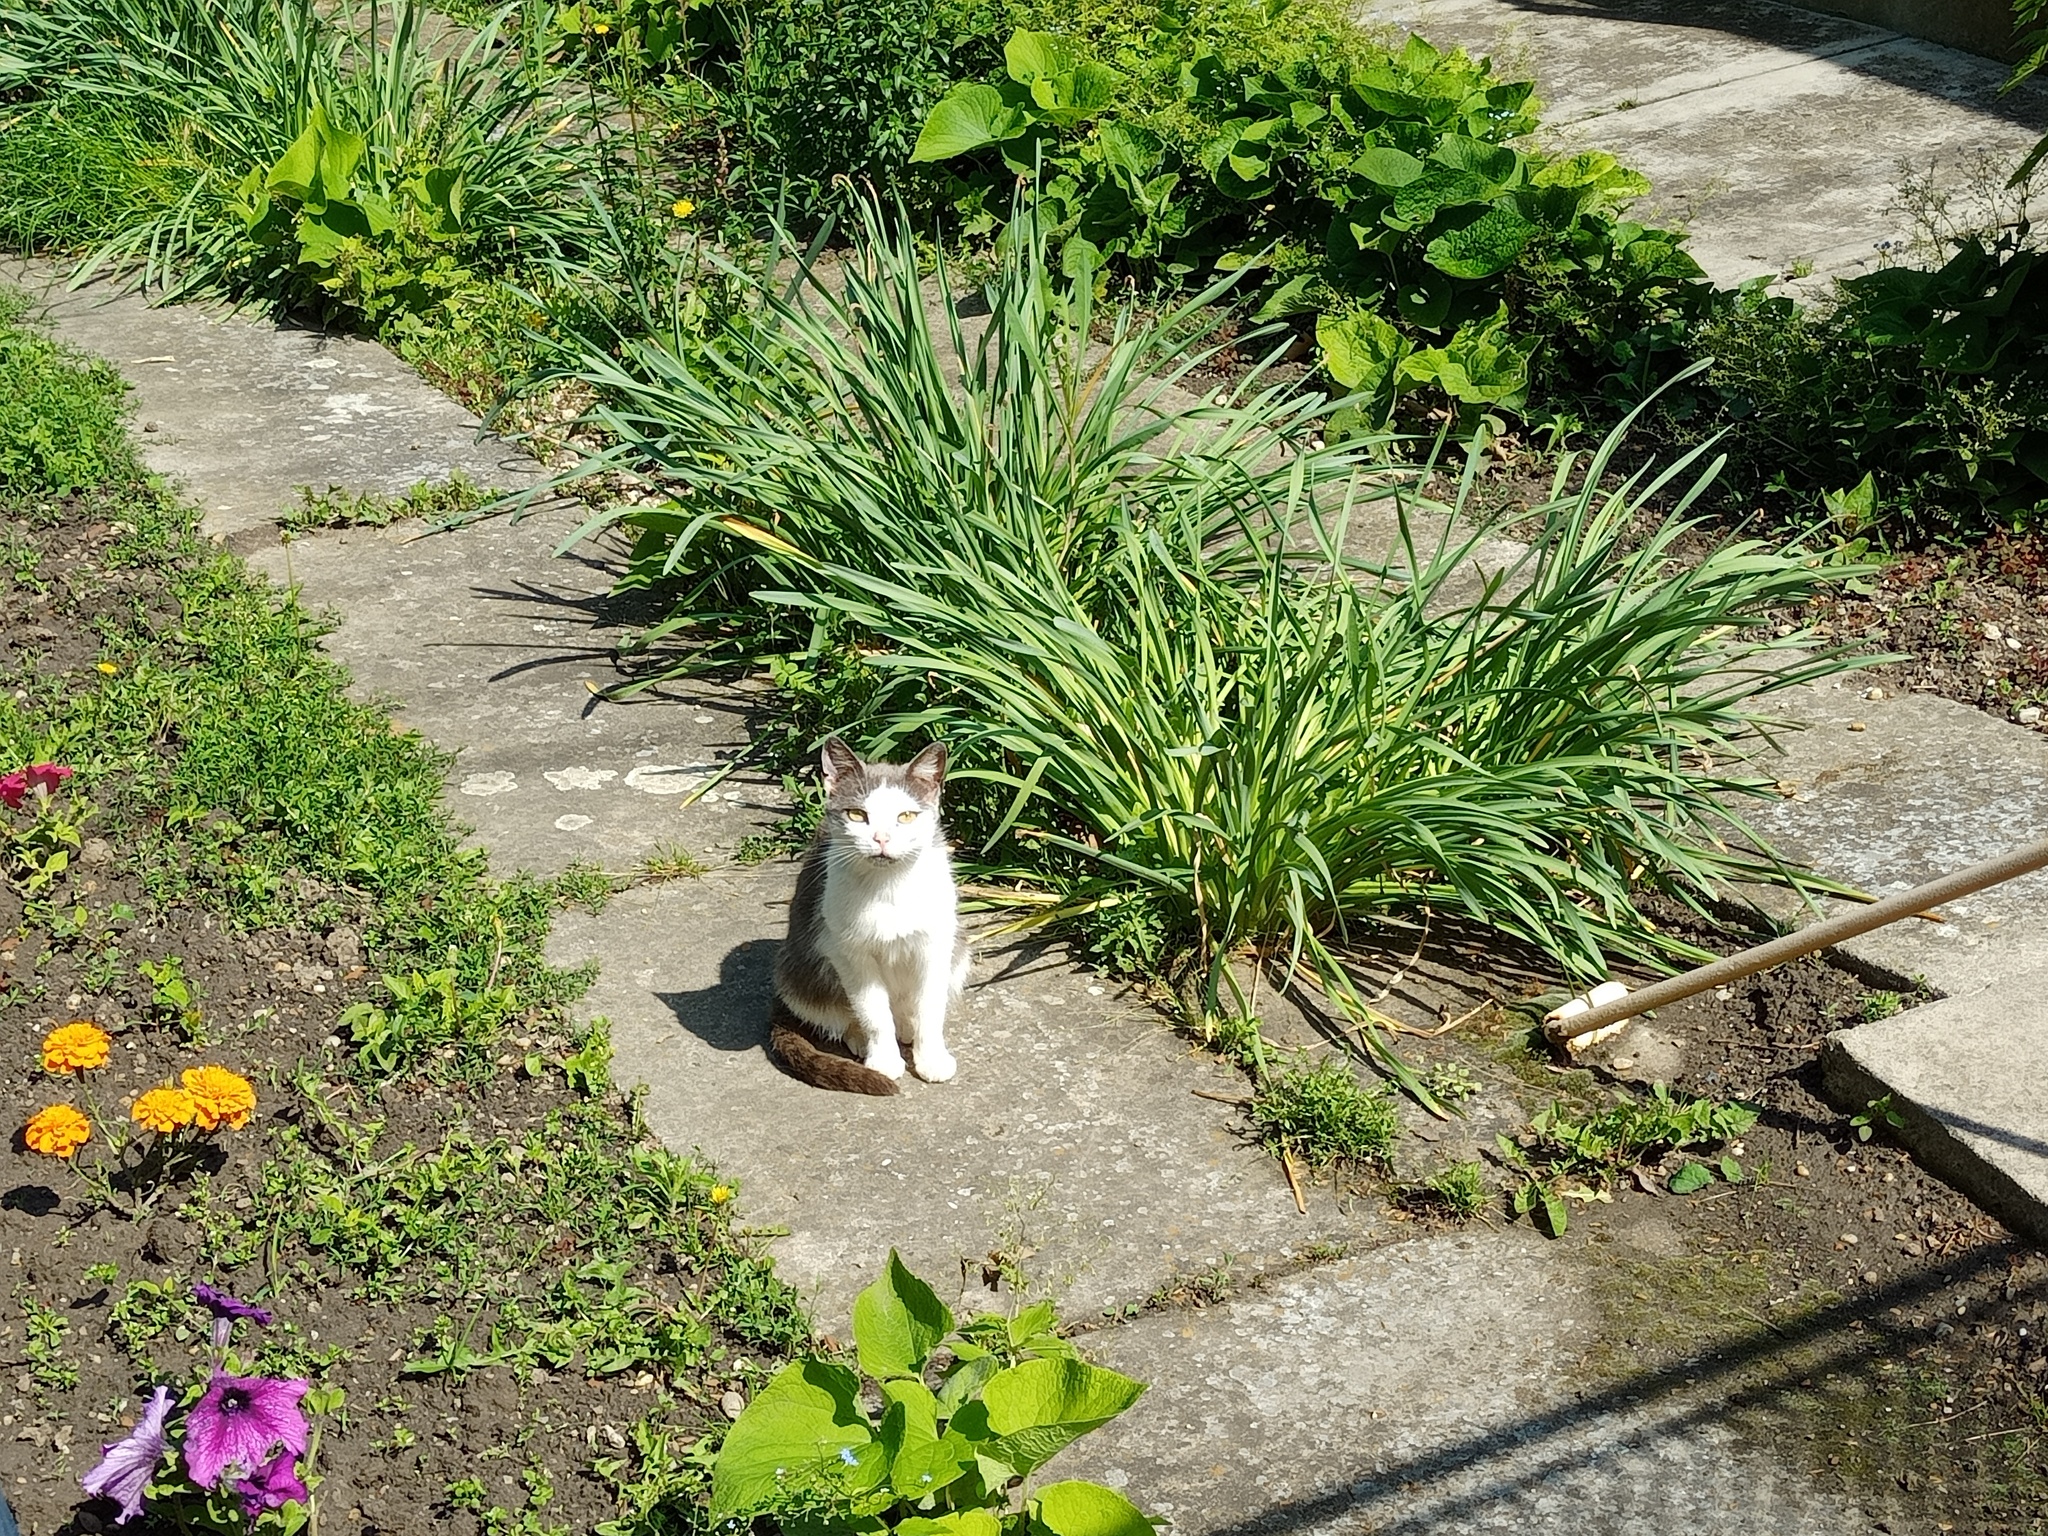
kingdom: Animalia
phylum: Chordata
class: Mammalia
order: Carnivora
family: Felidae
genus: Felis
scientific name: Felis catus
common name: Domestic cat
